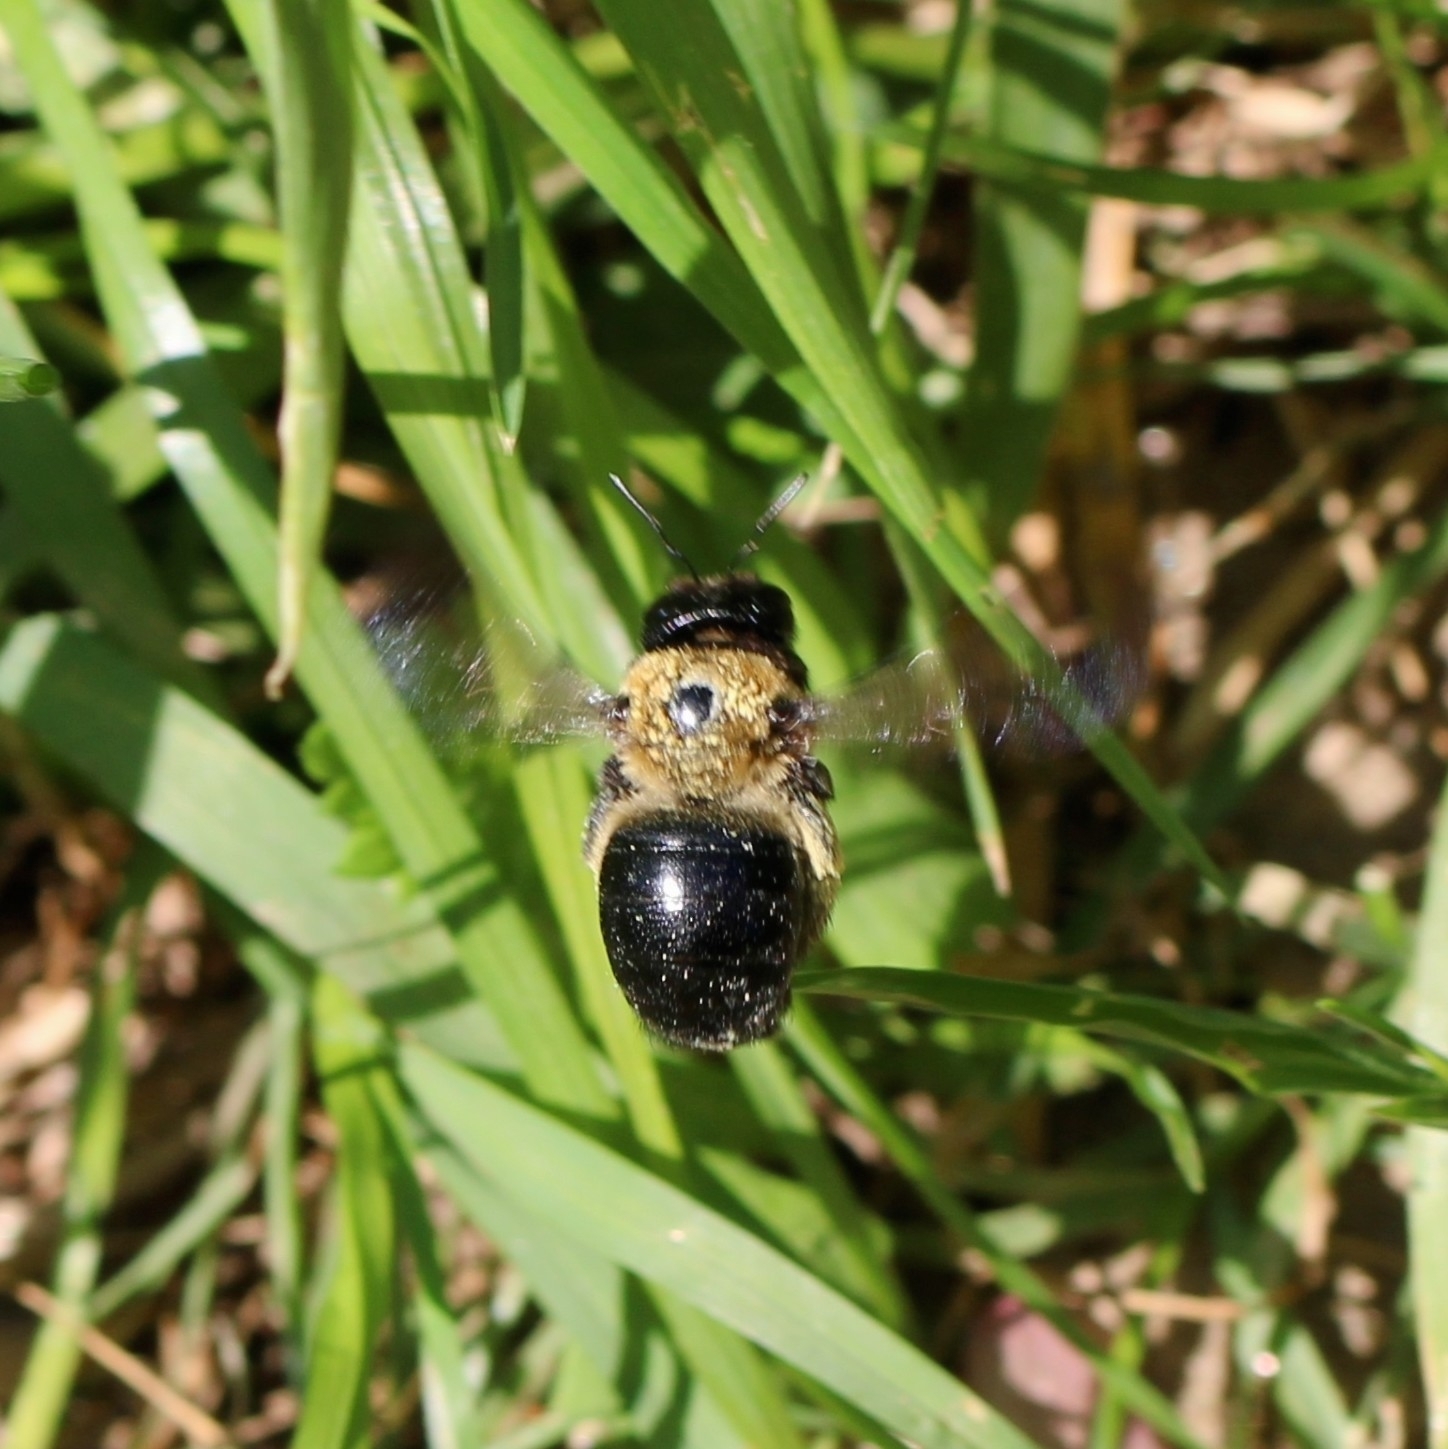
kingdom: Animalia
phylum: Arthropoda
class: Insecta
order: Hymenoptera
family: Apidae
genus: Xylocopa
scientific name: Xylocopa virginica
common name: Carpenter bee
